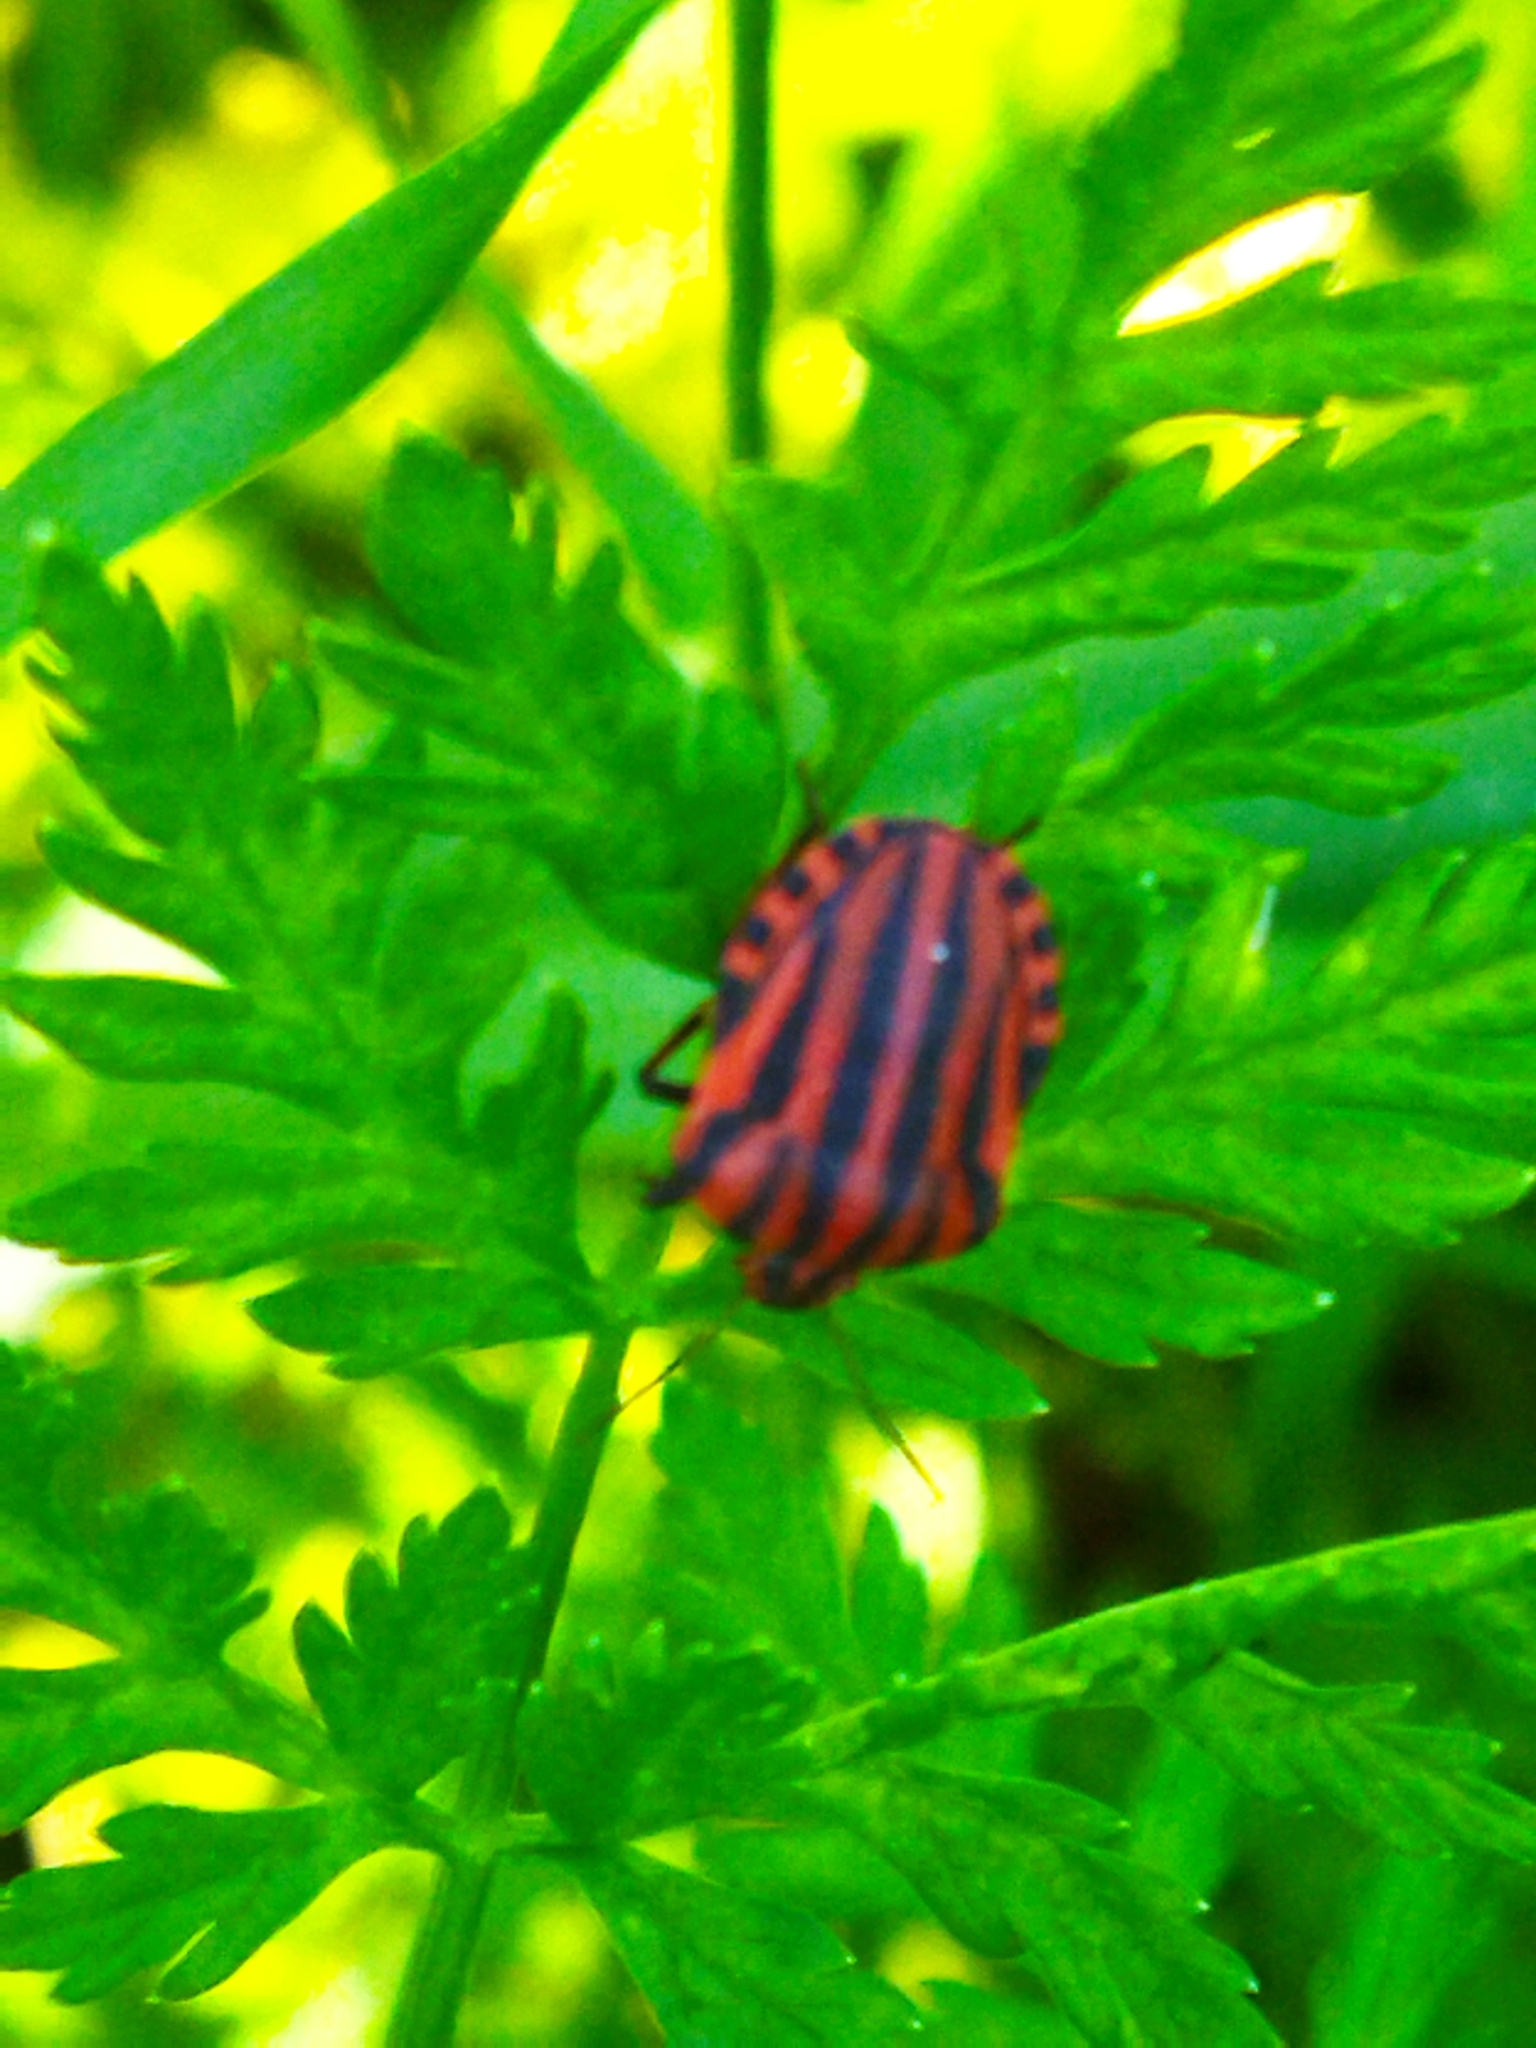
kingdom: Animalia
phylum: Arthropoda
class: Insecta
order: Hemiptera
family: Pentatomidae
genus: Graphosoma
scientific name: Graphosoma italicum
